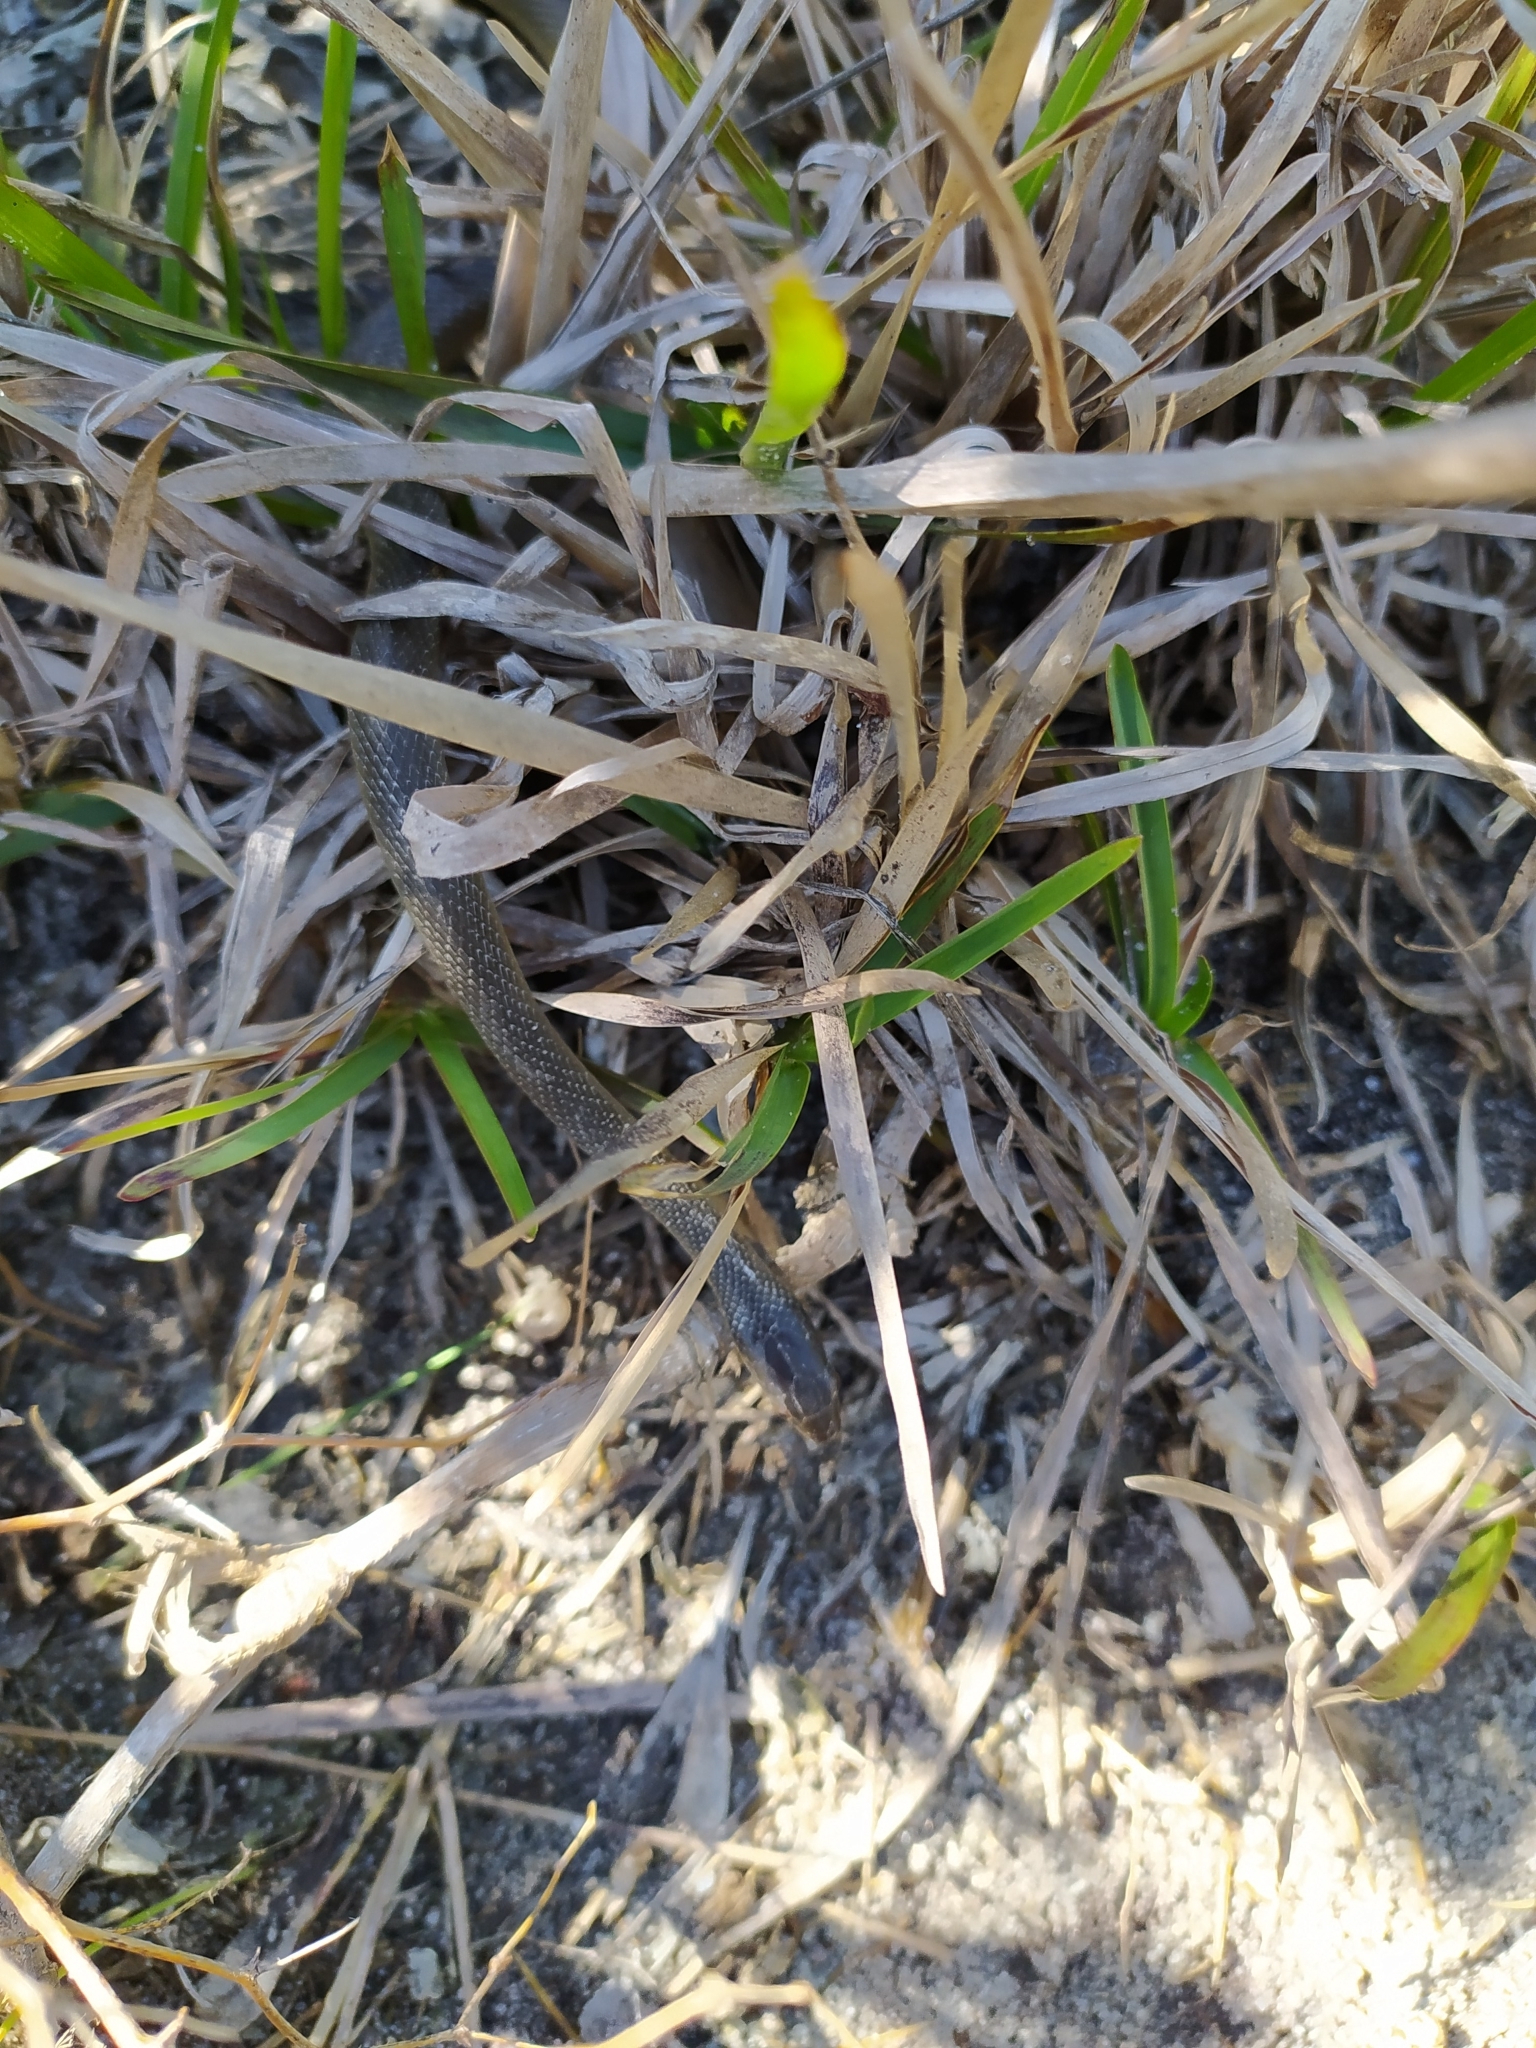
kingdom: Animalia
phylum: Chordata
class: Squamata
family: Lamprophiidae
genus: Lycodonomorphus
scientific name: Lycodonomorphus rufulus
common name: Brown water snake
